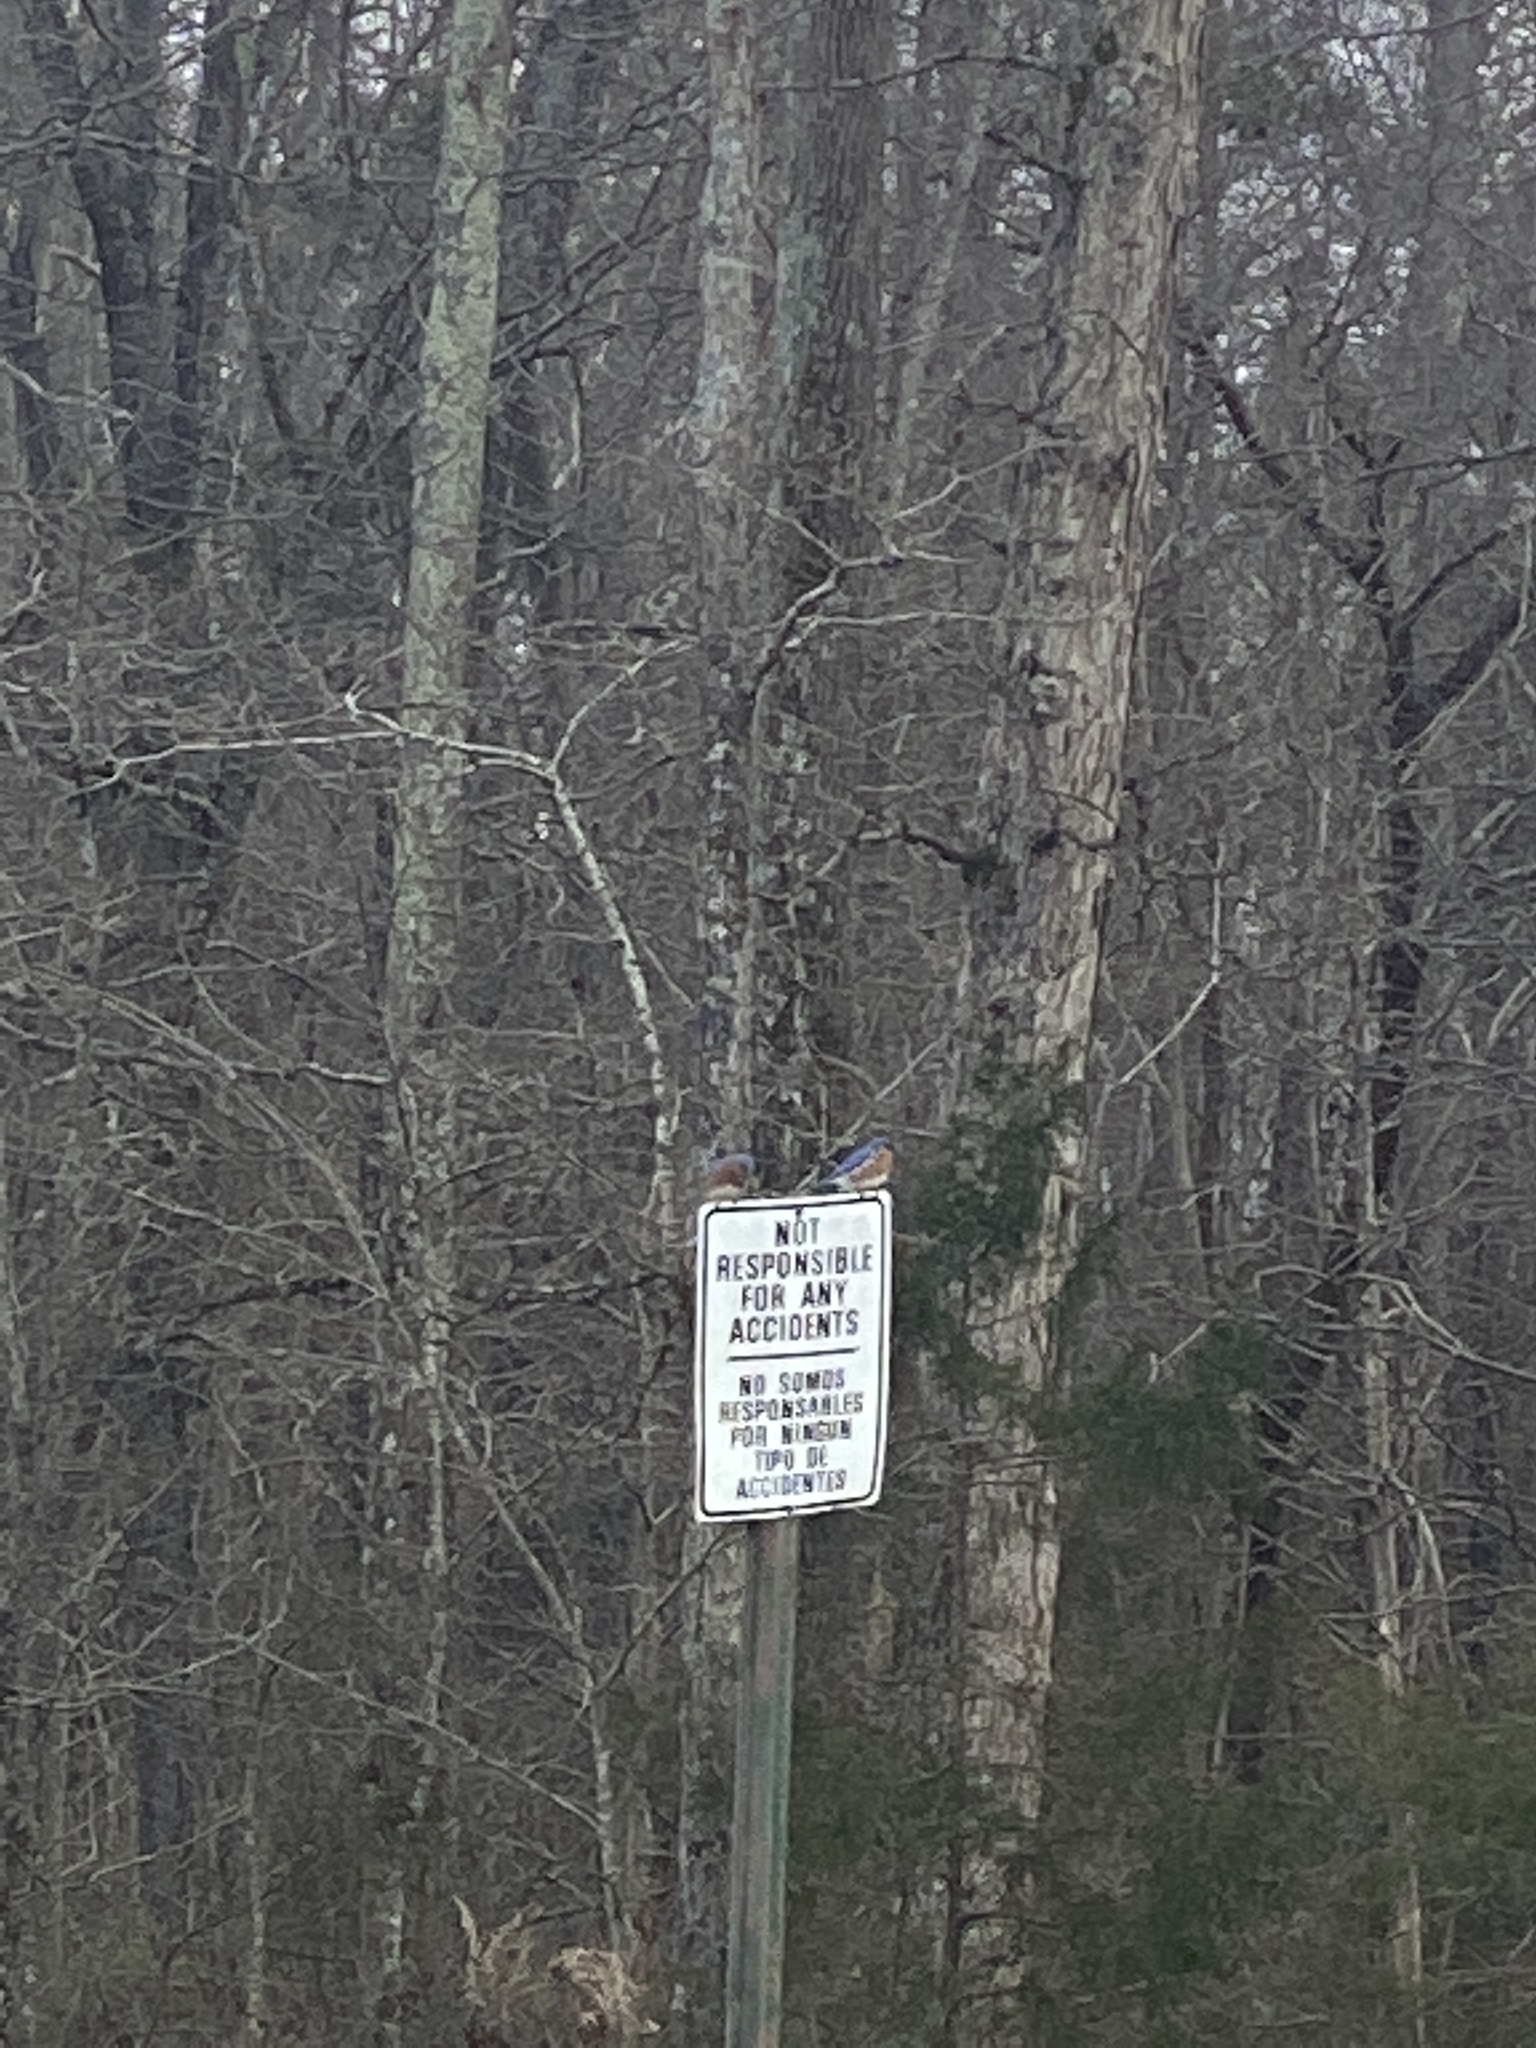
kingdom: Animalia
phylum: Chordata
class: Aves
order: Passeriformes
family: Turdidae
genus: Sialia
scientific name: Sialia sialis
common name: Eastern bluebird
